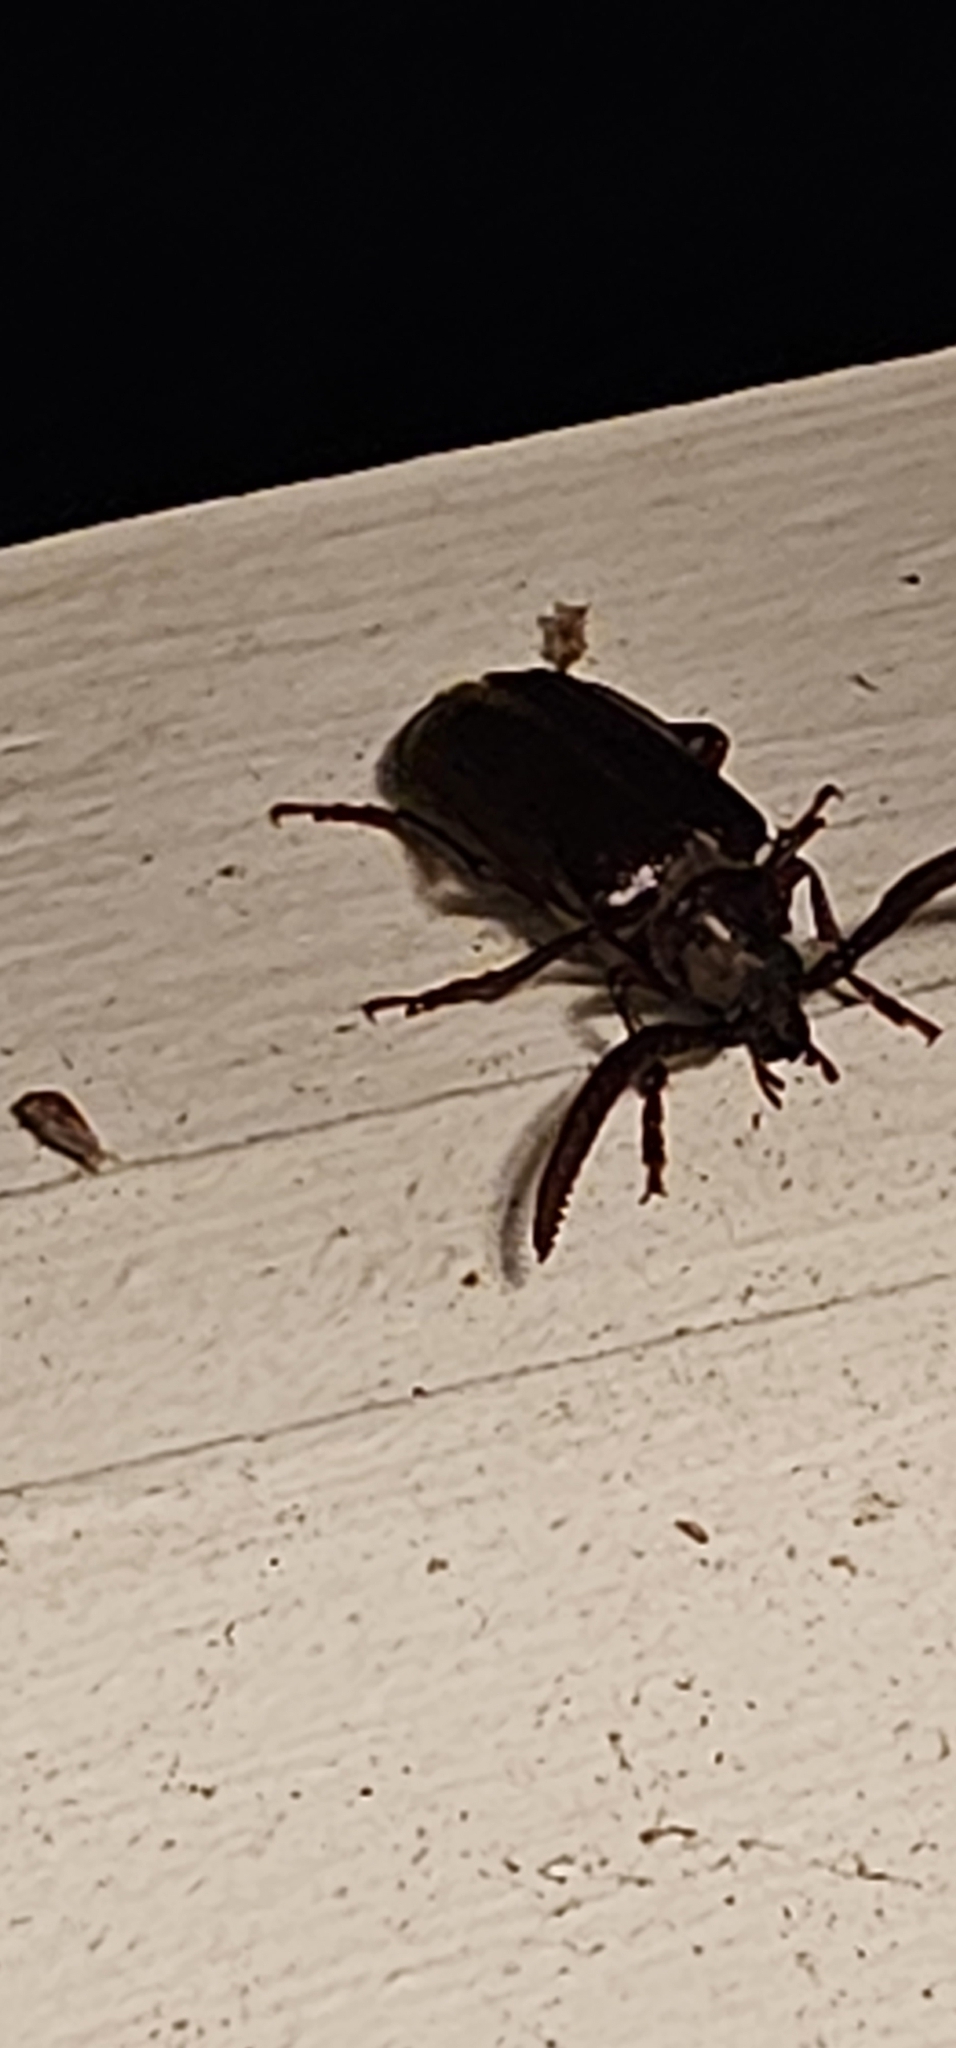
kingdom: Animalia
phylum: Arthropoda
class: Insecta
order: Coleoptera
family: Cerambycidae
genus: Prionus
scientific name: Prionus imbricornis
